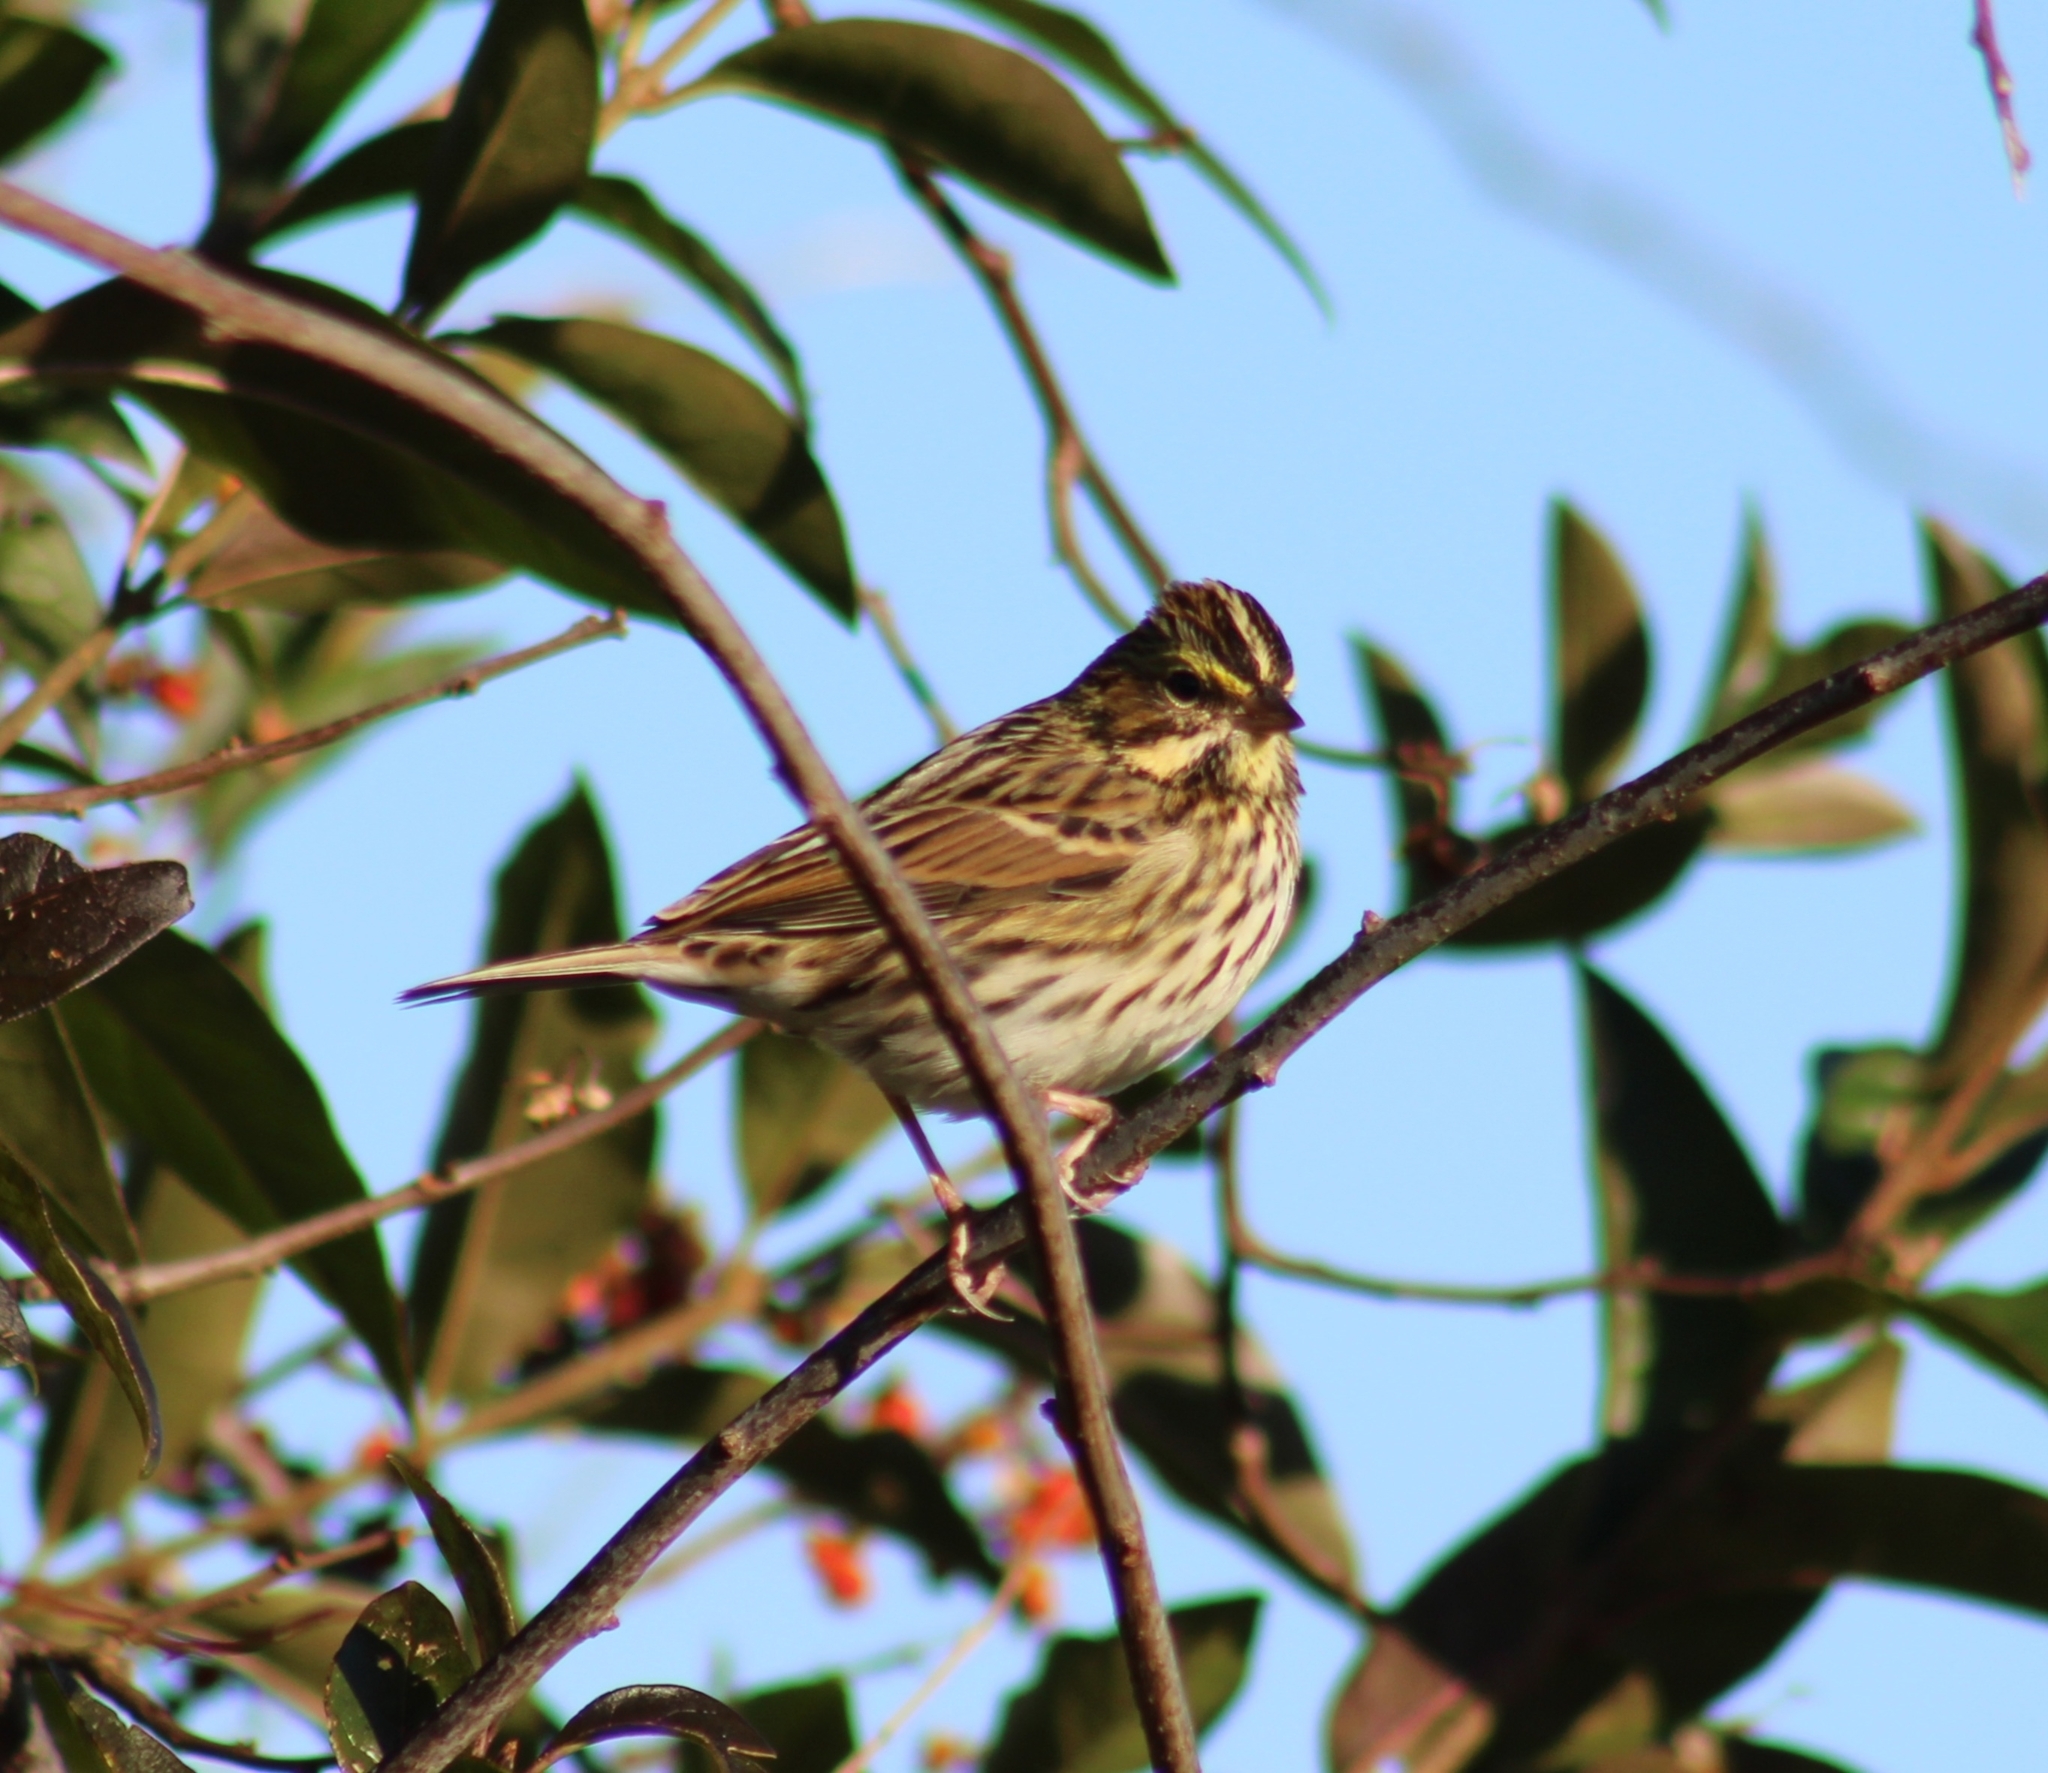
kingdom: Animalia
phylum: Chordata
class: Aves
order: Passeriformes
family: Passerellidae
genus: Passerculus
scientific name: Passerculus sandwichensis
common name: Savannah sparrow
